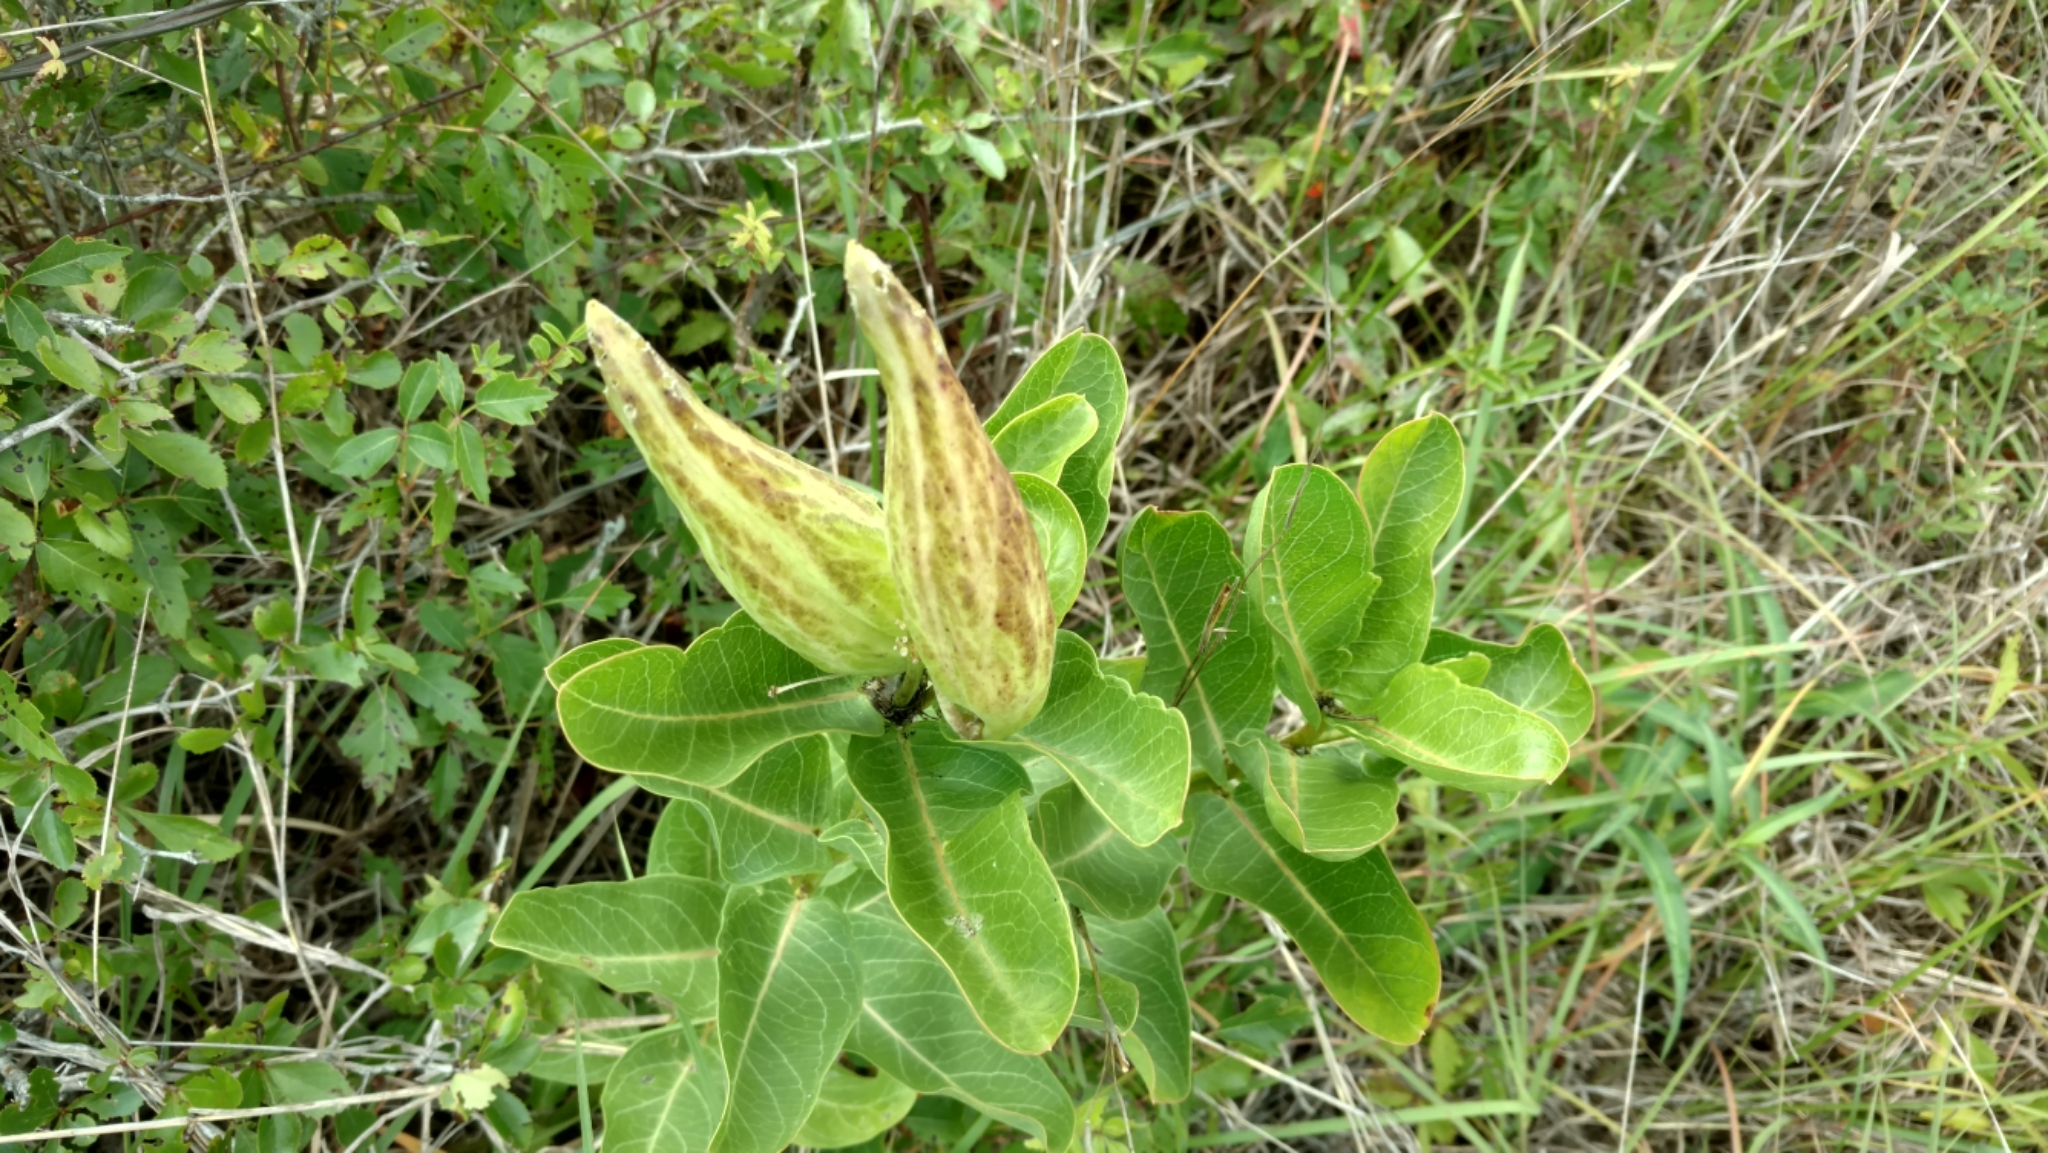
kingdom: Plantae
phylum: Tracheophyta
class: Magnoliopsida
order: Gentianales
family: Apocynaceae
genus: Asclepias
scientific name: Asclepias viridis
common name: Antelope-horns
